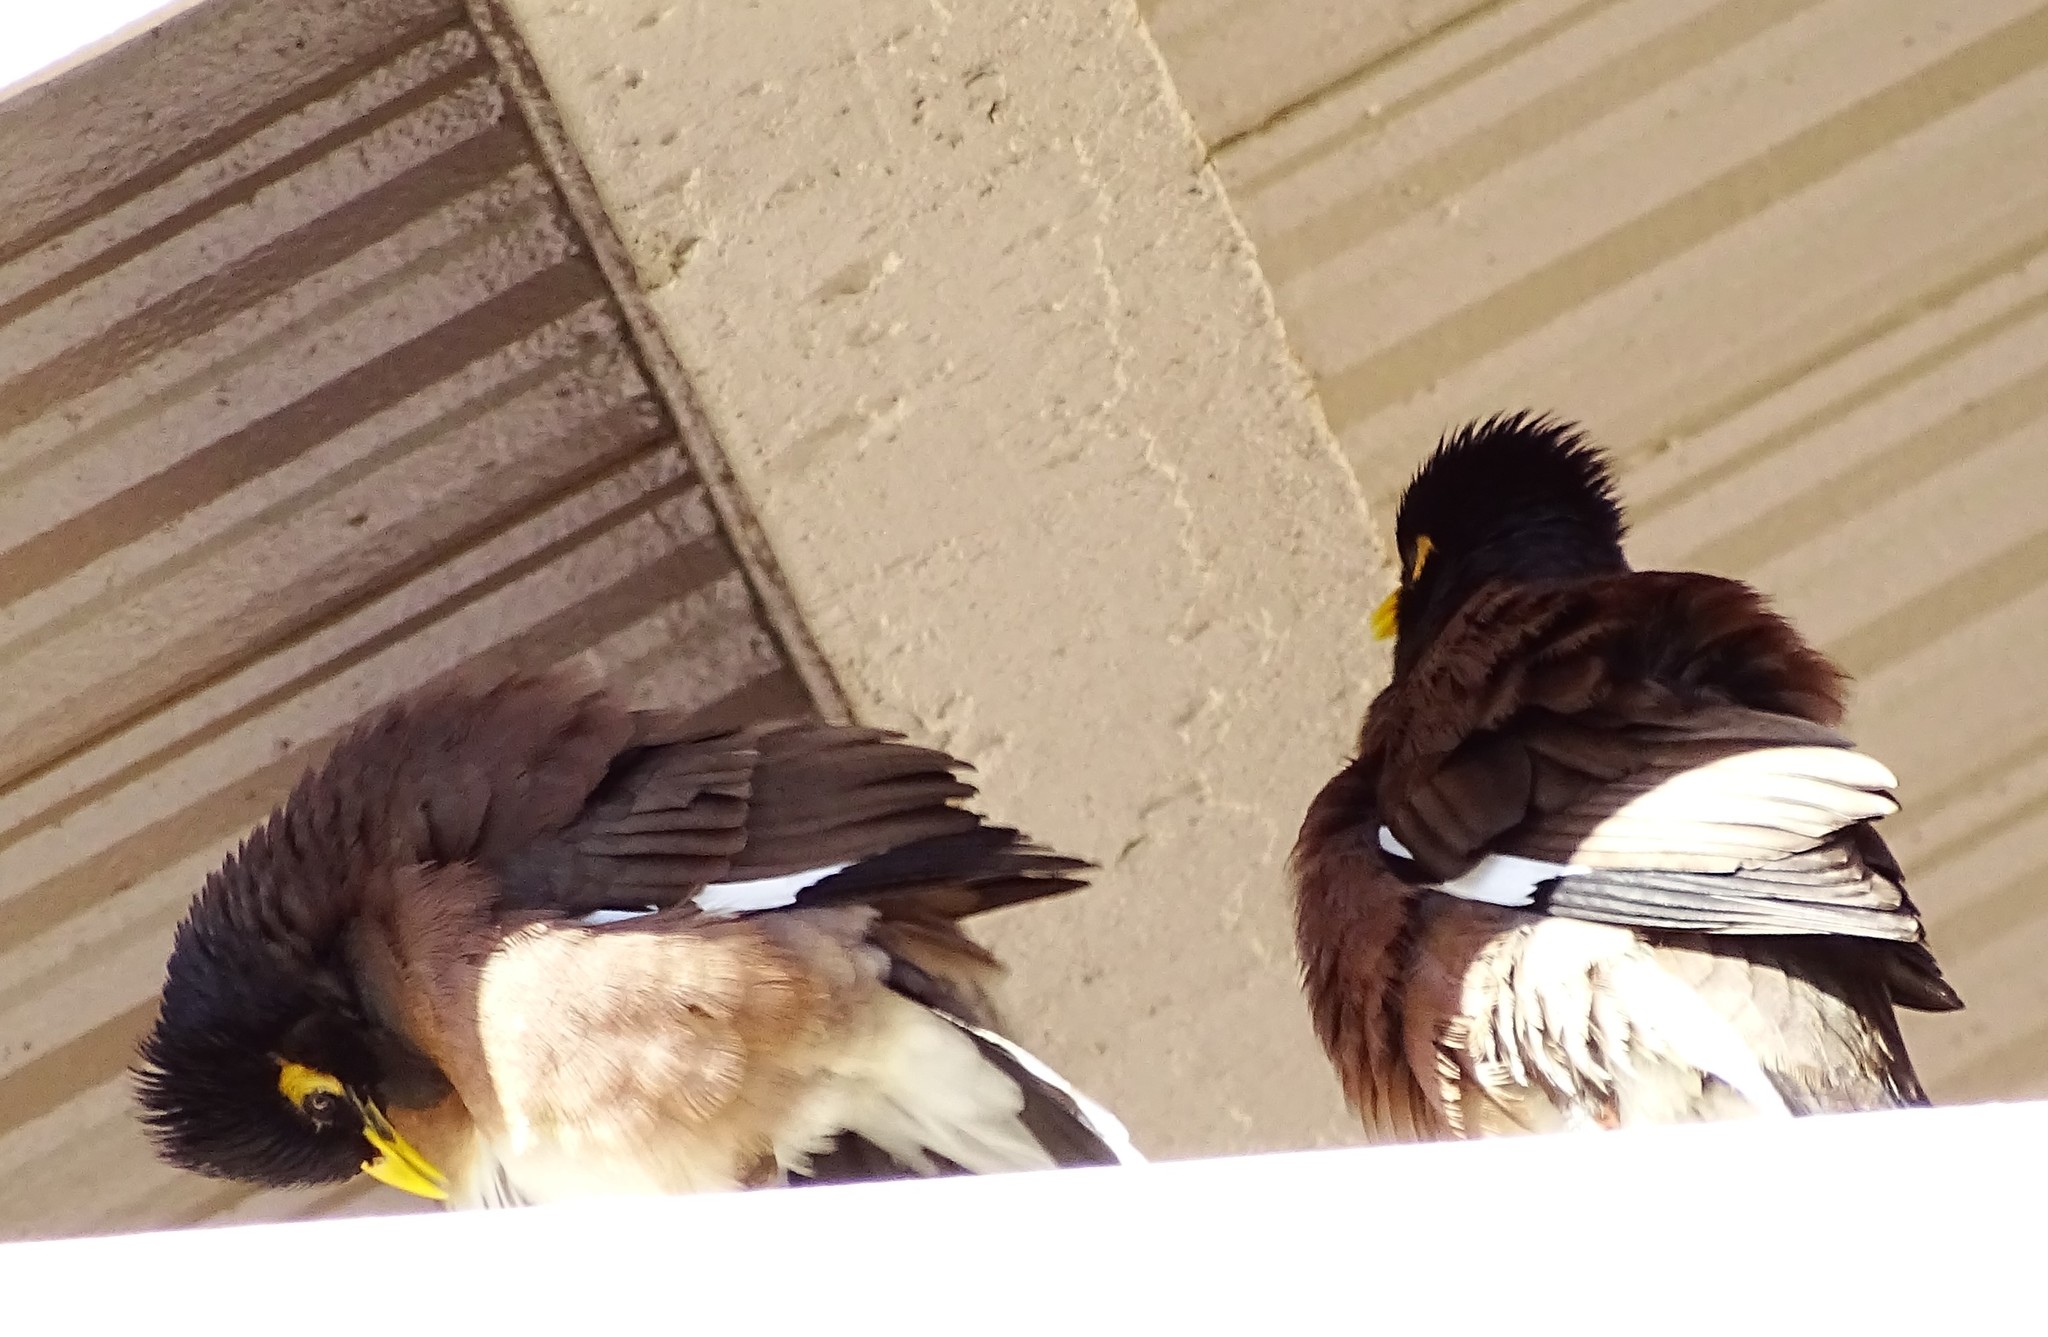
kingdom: Animalia
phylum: Chordata
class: Aves
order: Passeriformes
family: Sturnidae
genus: Acridotheres
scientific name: Acridotheres tristis
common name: Common myna
